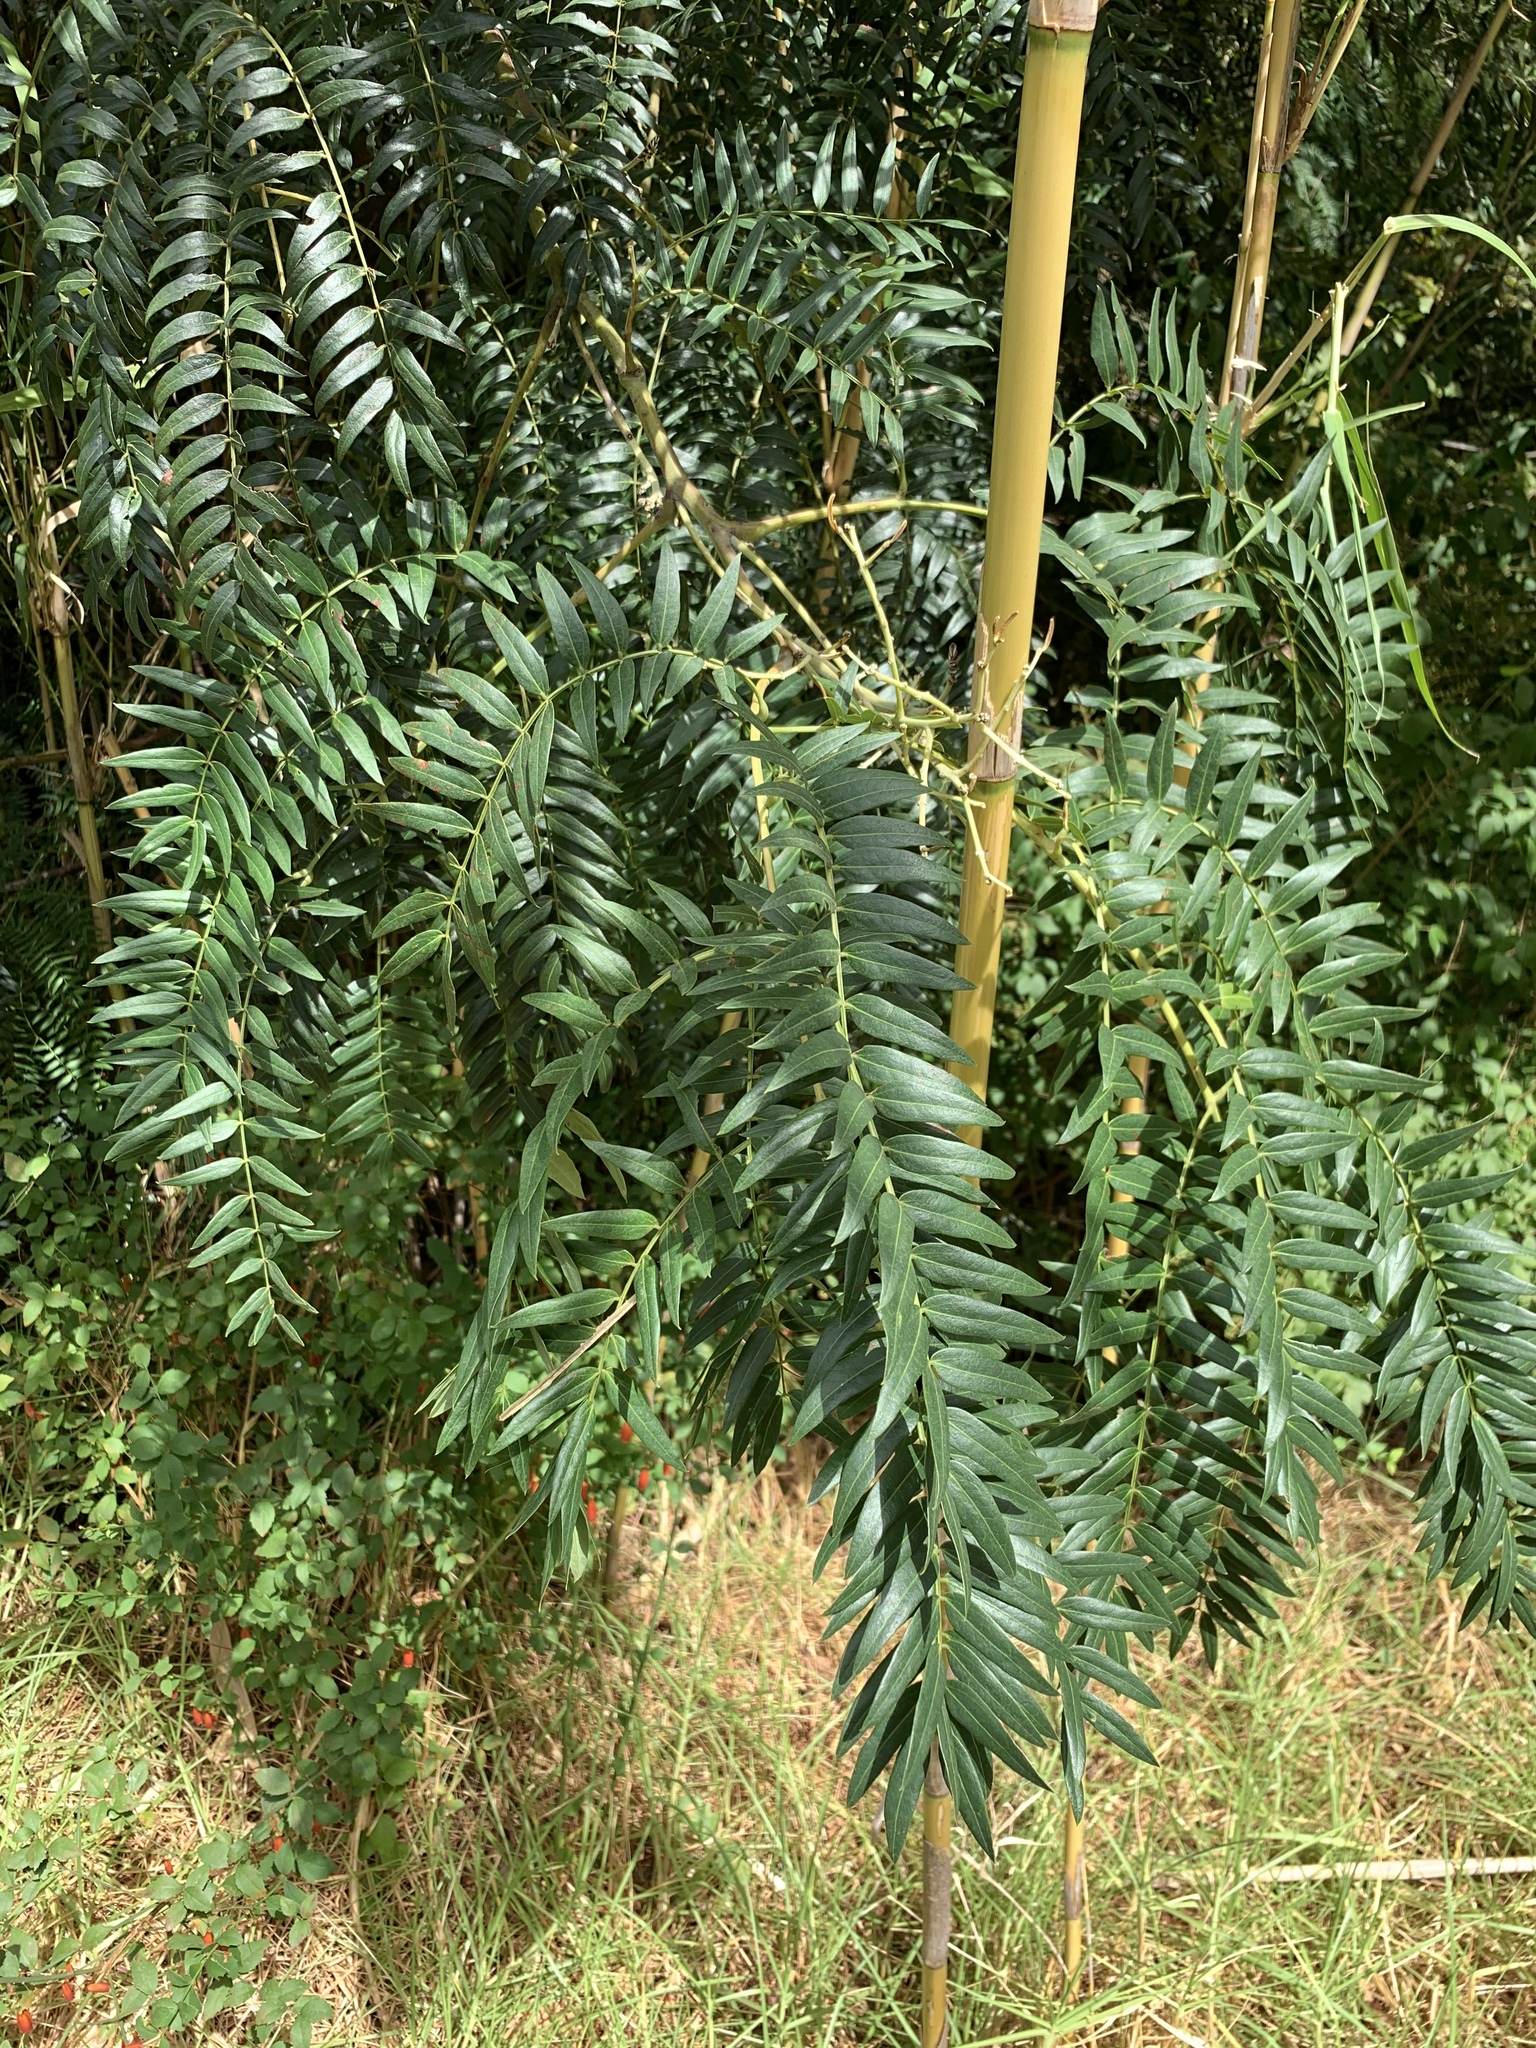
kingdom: Plantae
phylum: Tracheophyta
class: Magnoliopsida
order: Fabales
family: Fabaceae
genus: Acacia
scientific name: Acacia elata
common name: Cedar wattle
